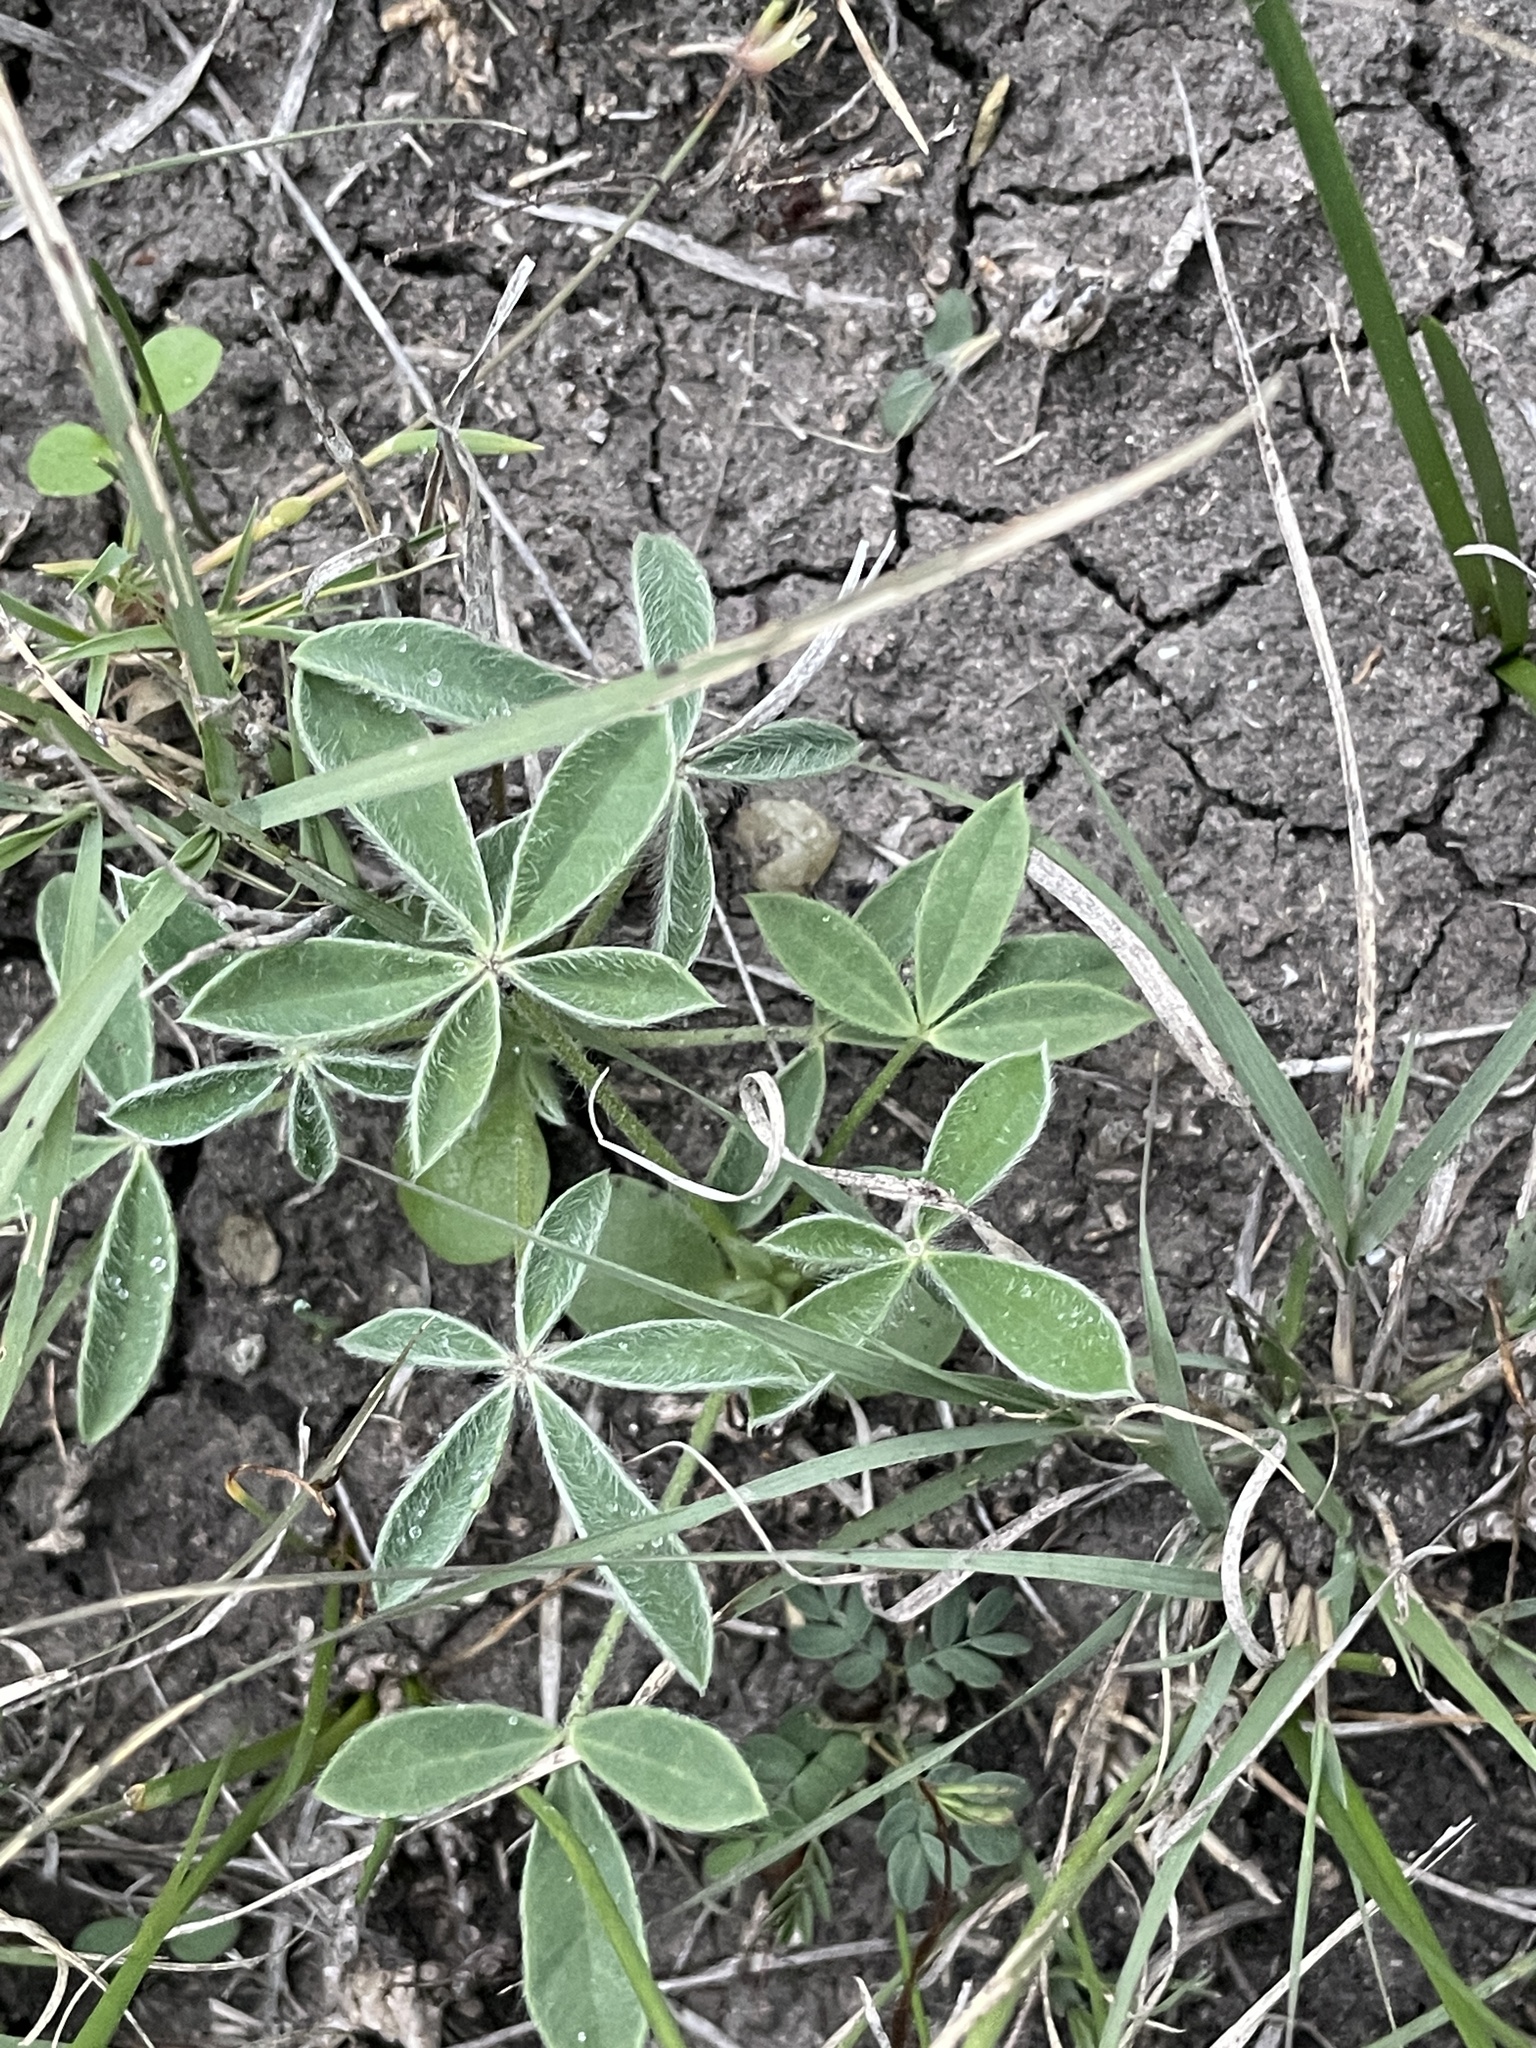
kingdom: Plantae
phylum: Tracheophyta
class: Magnoliopsida
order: Fabales
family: Fabaceae
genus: Lupinus
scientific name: Lupinus texensis
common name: Texas bluebonnet
